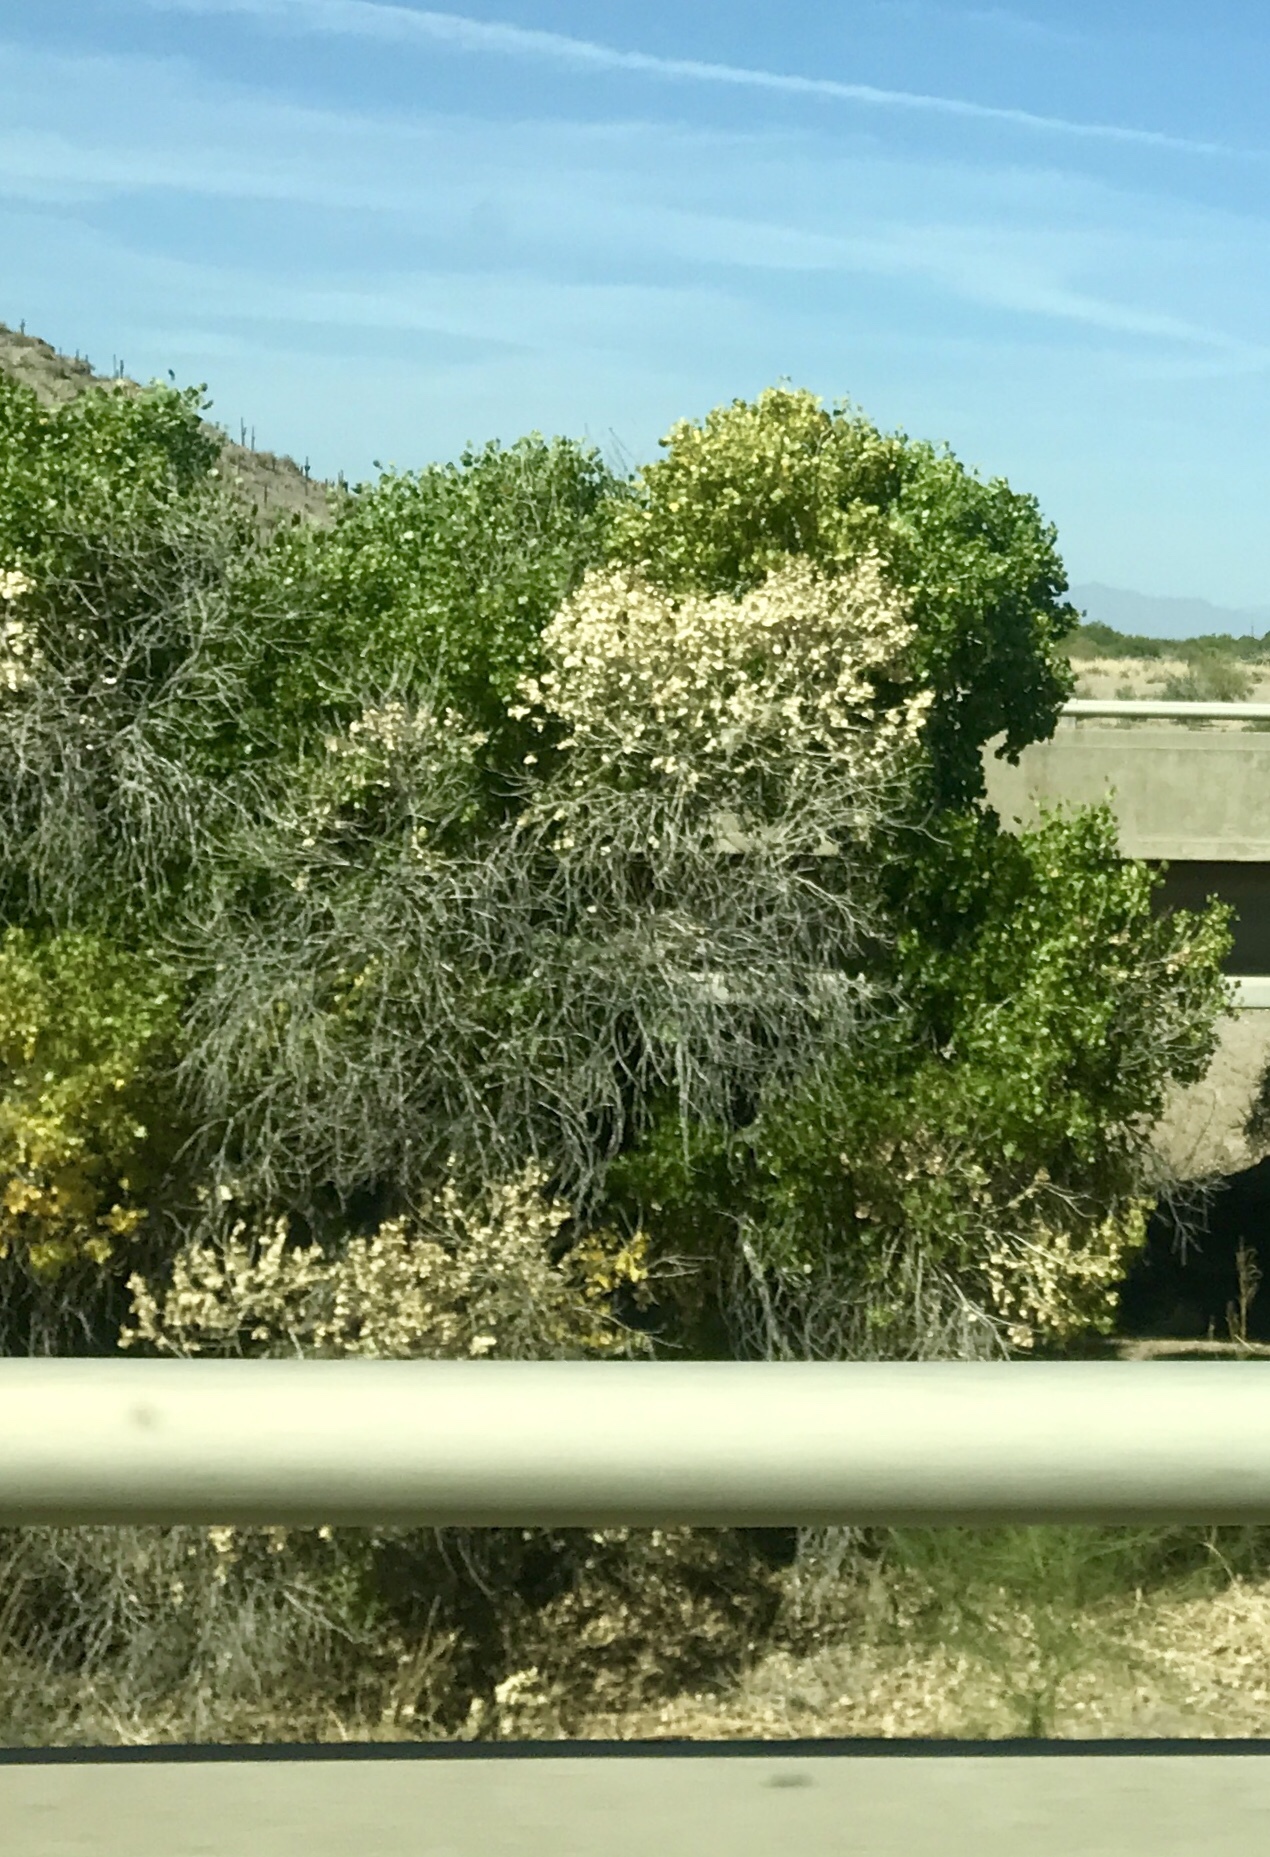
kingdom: Plantae
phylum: Tracheophyta
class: Magnoliopsida
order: Malpighiales
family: Salicaceae
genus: Populus
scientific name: Populus fremontii
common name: Fremont's cottonwood
